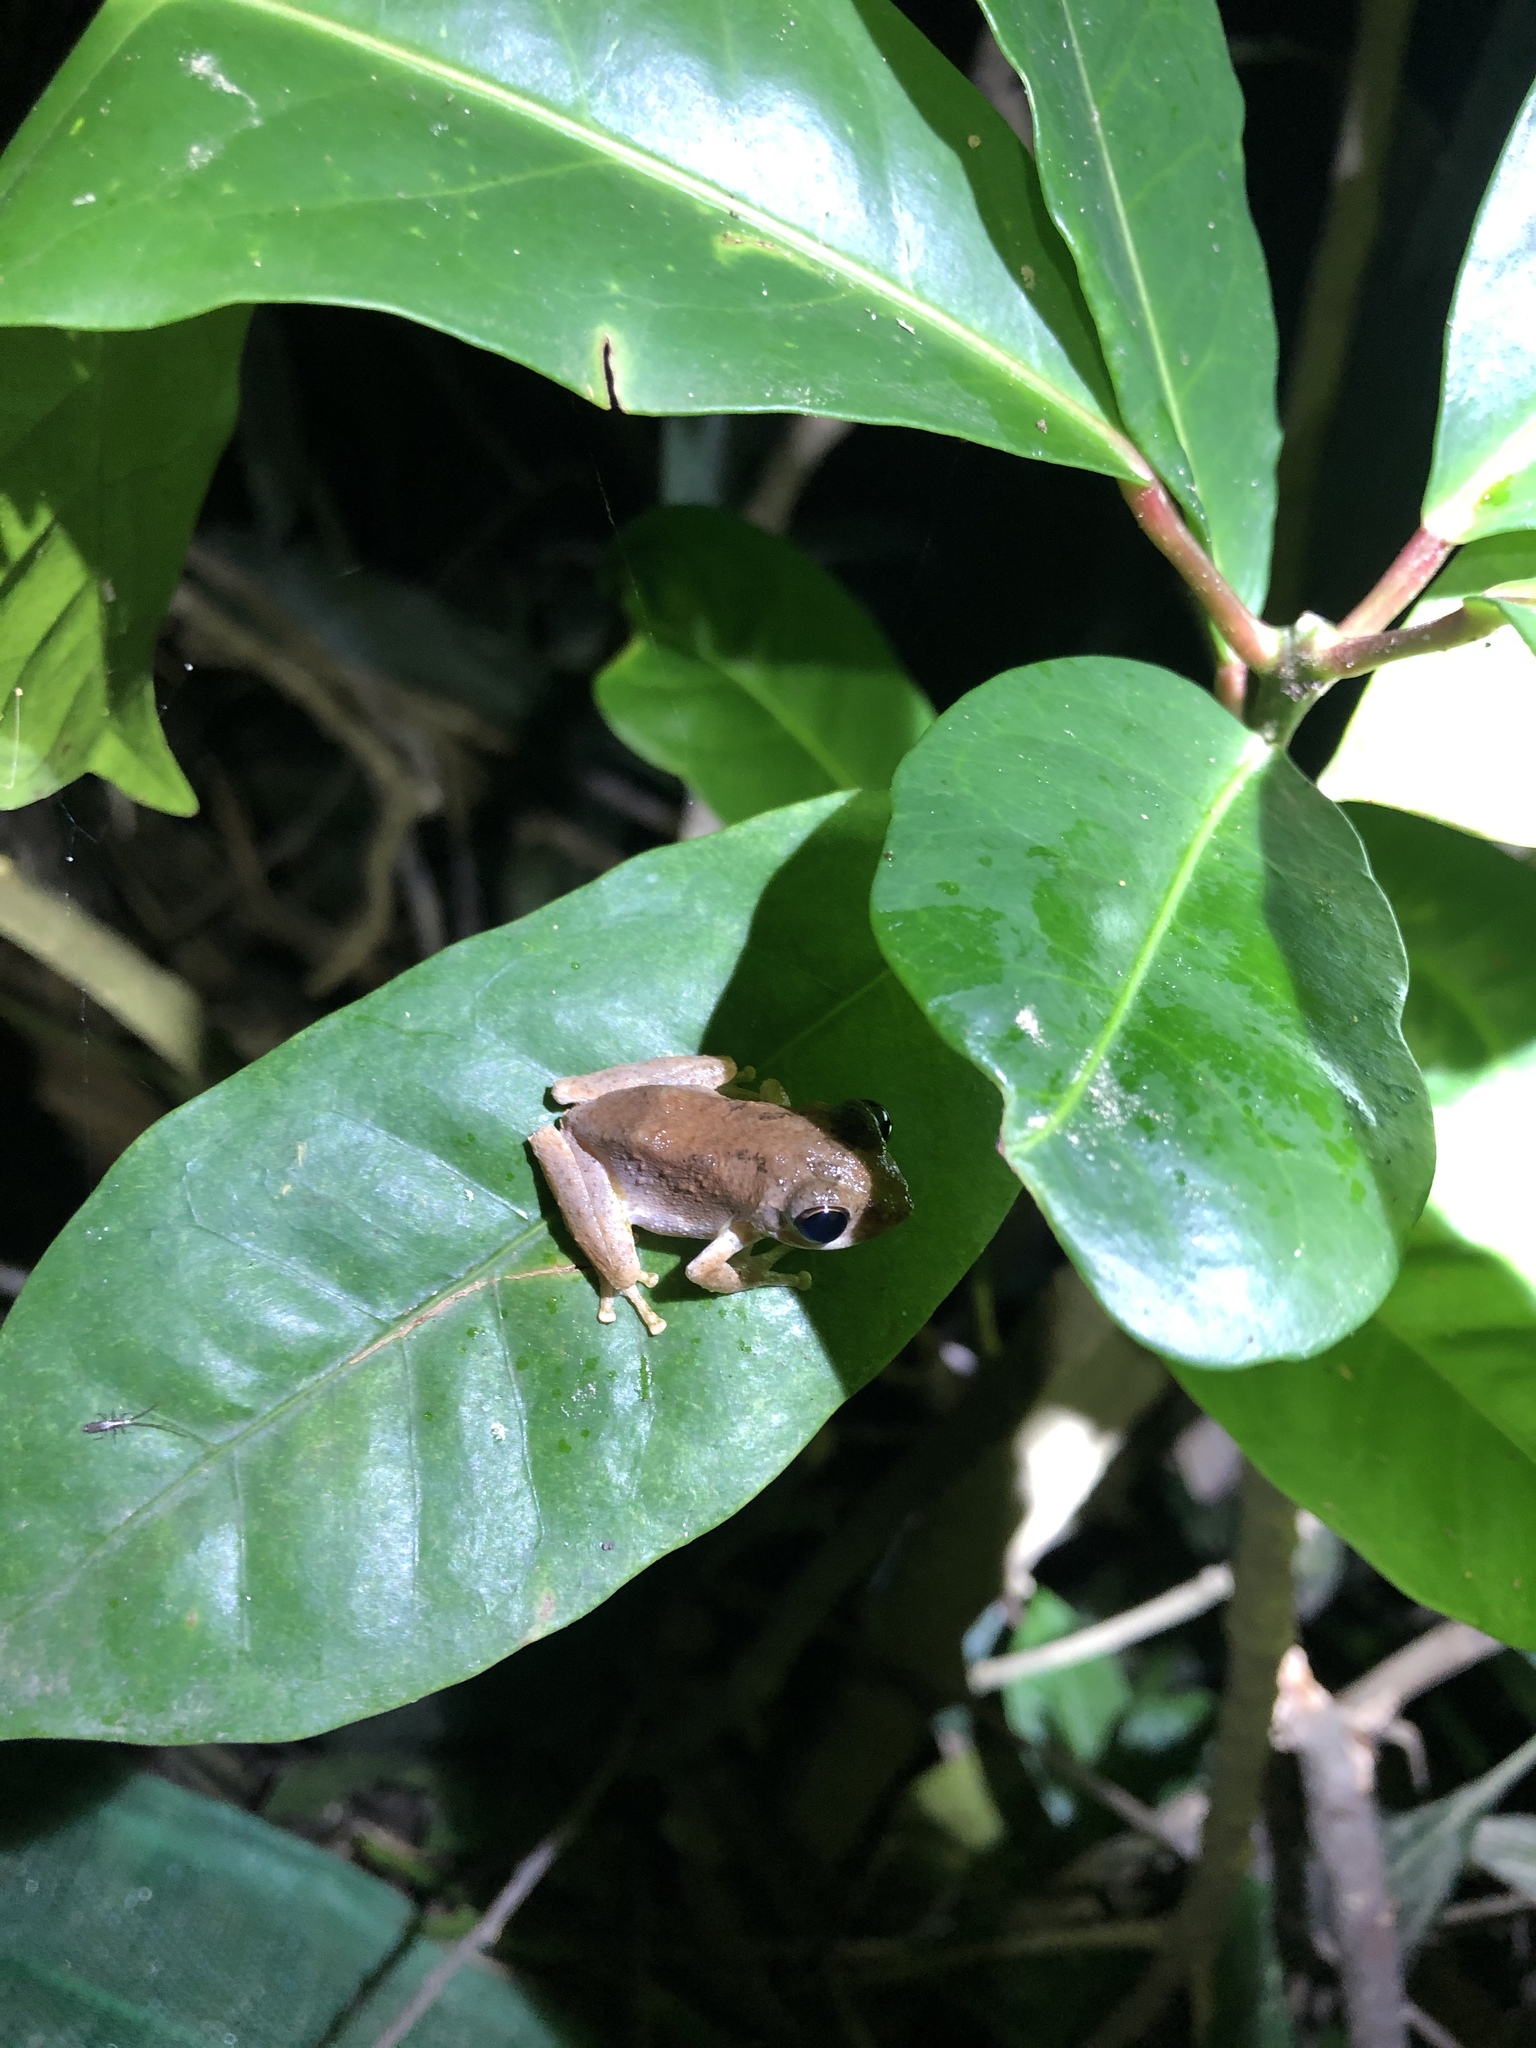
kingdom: Animalia
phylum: Chordata
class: Amphibia
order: Anura
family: Rhacophoridae
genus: Kurixalus
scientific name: Kurixalus idiootocus
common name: Temple treefrog
